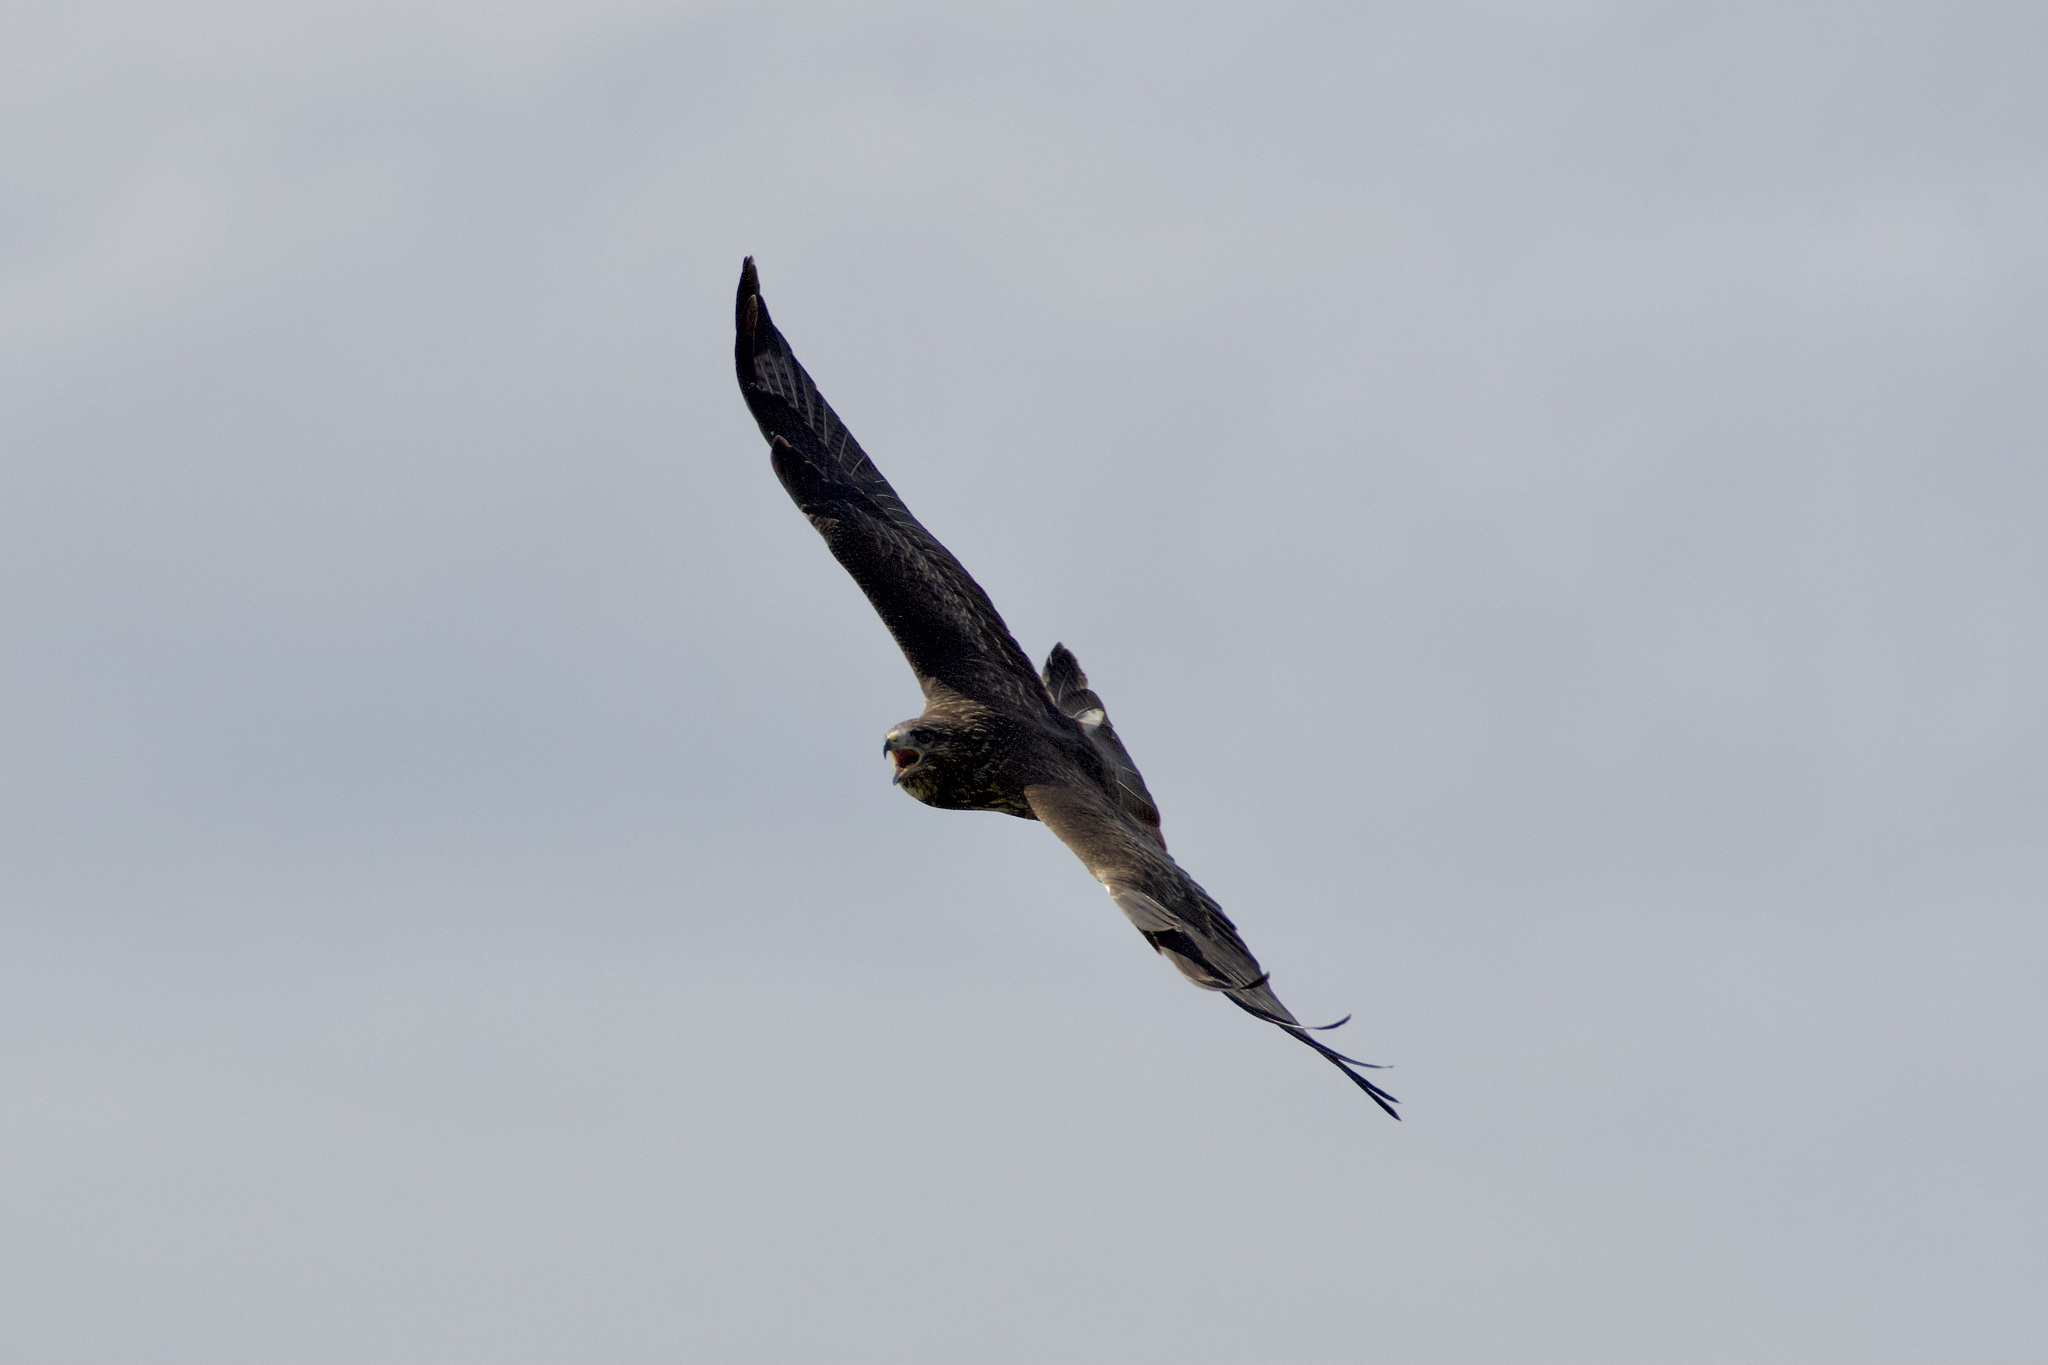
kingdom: Animalia
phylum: Chordata
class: Aves
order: Accipitriformes
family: Accipitridae
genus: Buteo
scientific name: Buteo buteo
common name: Common buzzard
